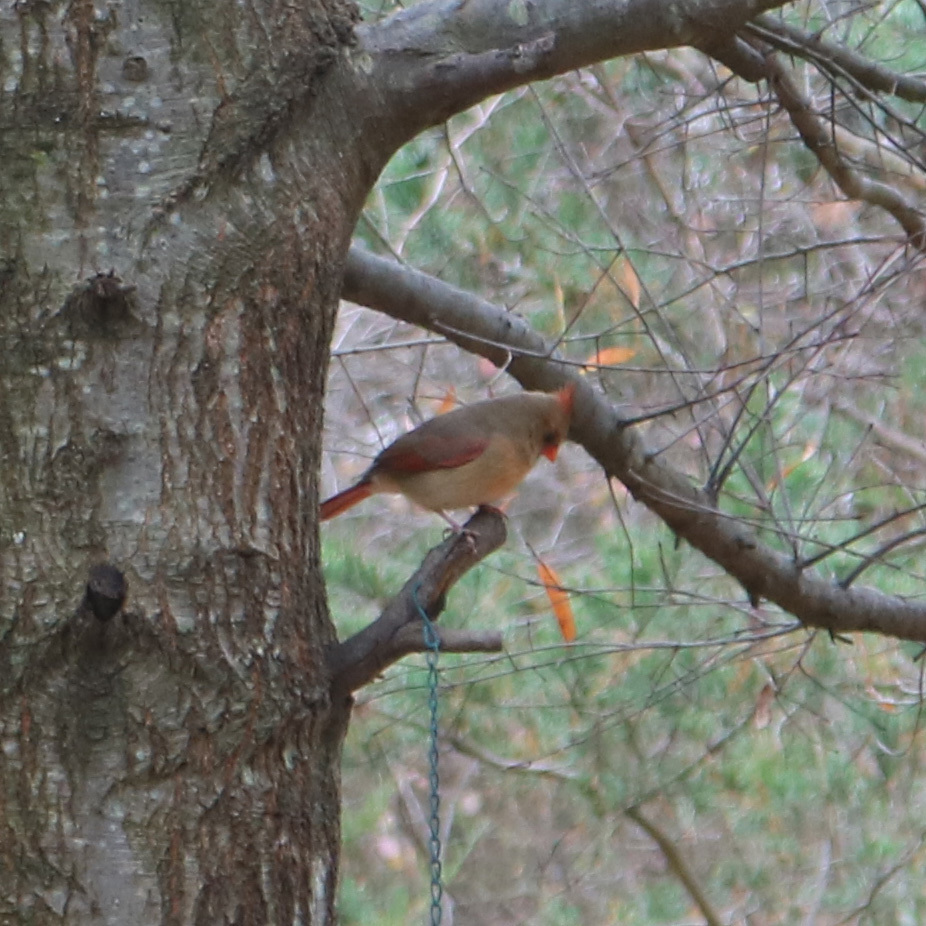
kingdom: Animalia
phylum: Chordata
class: Aves
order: Passeriformes
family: Cardinalidae
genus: Cardinalis
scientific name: Cardinalis cardinalis
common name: Northern cardinal
